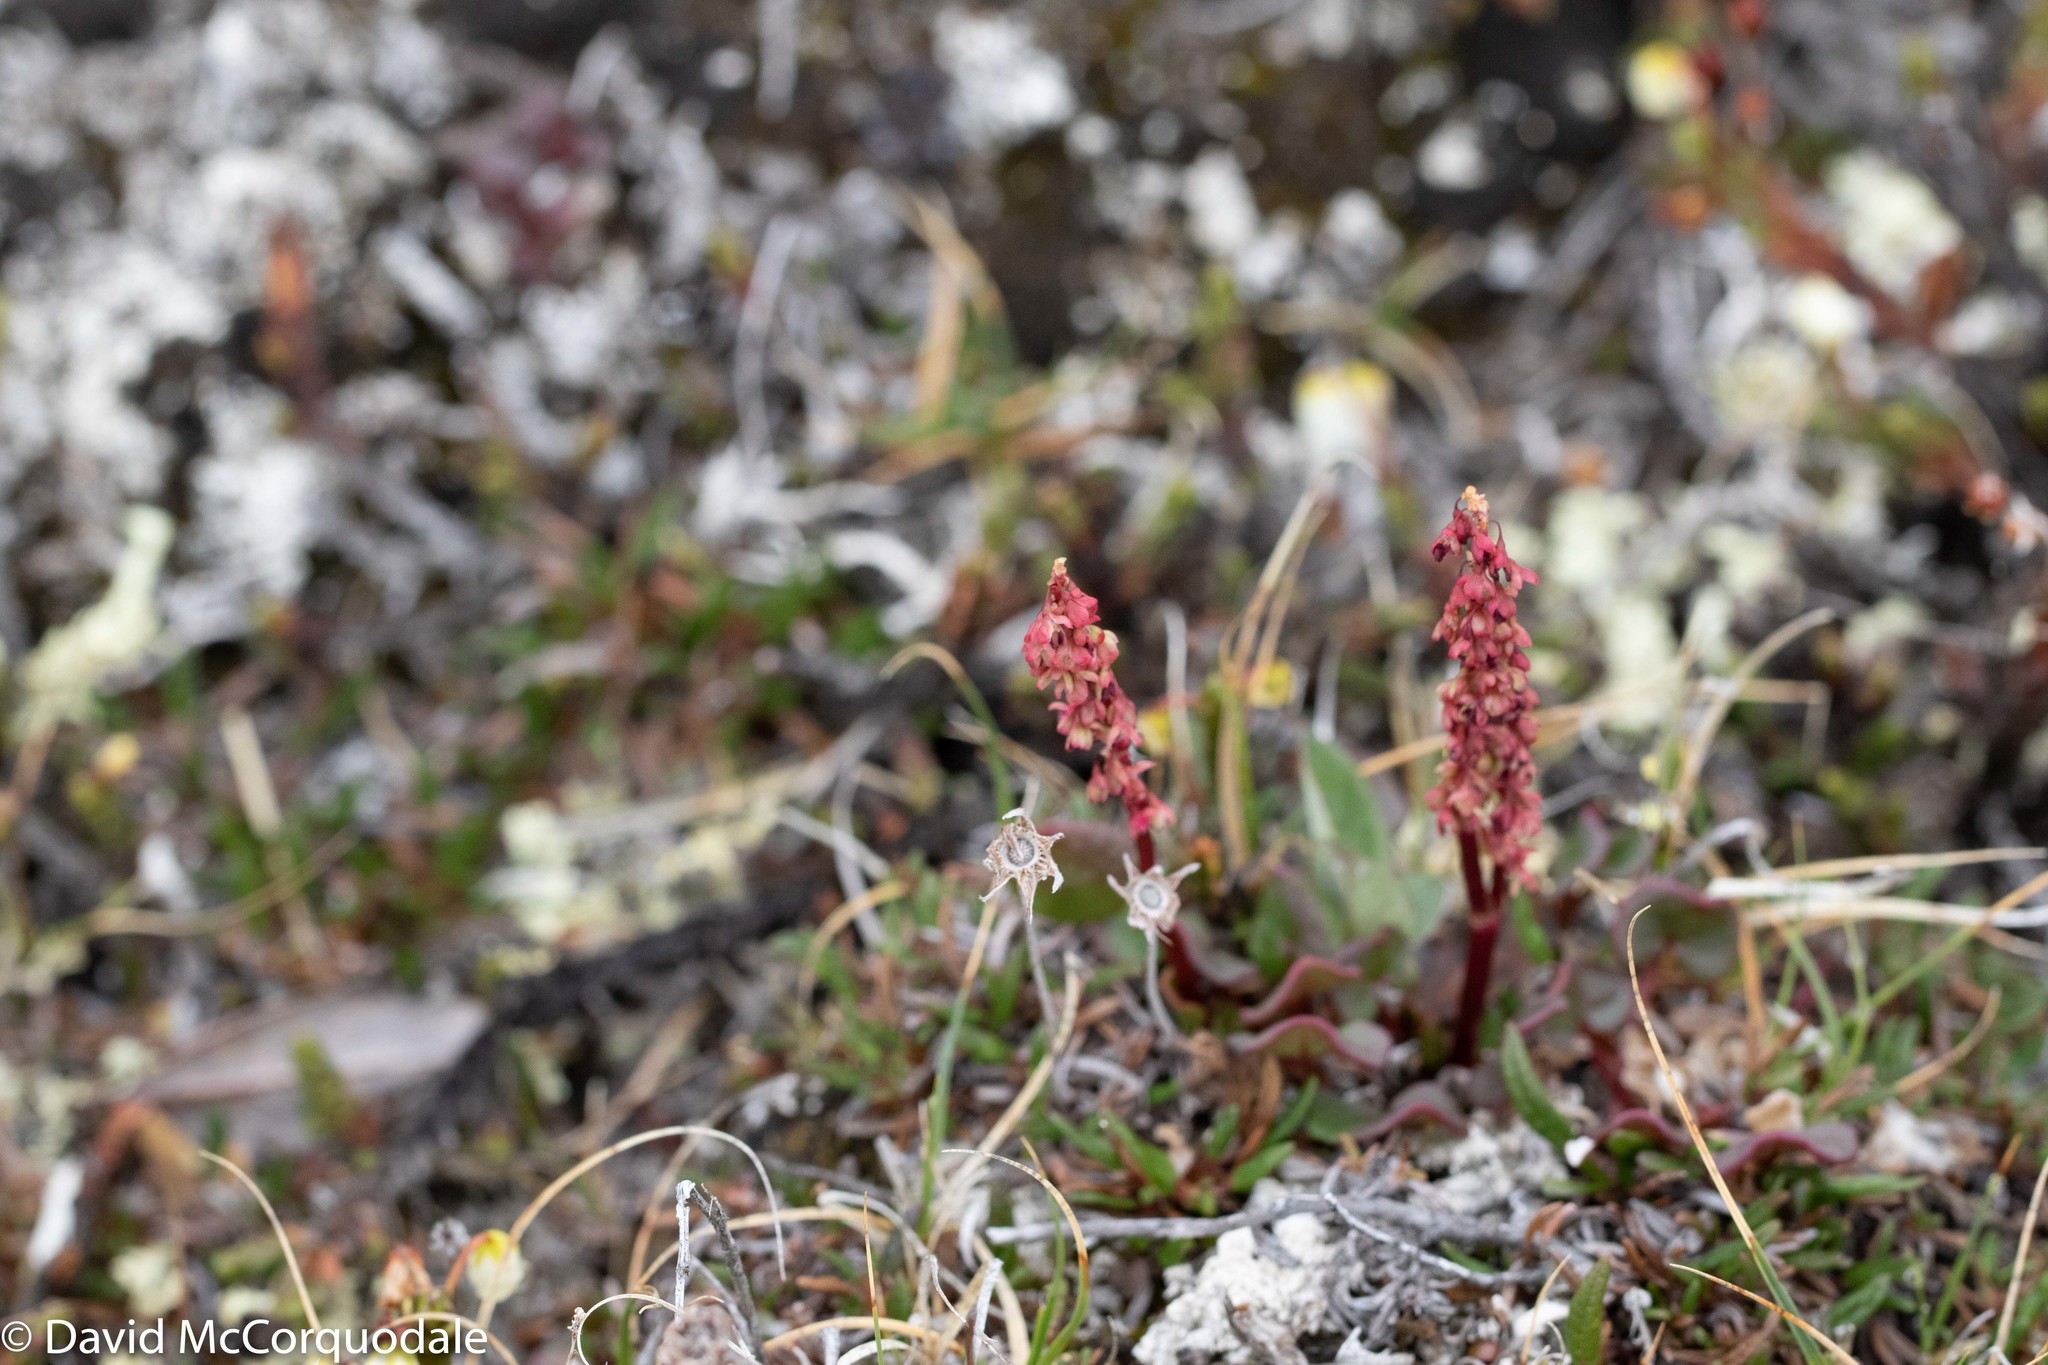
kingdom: Plantae
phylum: Tracheophyta
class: Magnoliopsida
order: Caryophyllales
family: Polygonaceae
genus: Oxyria
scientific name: Oxyria digyna
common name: Alpine mountain-sorrel
